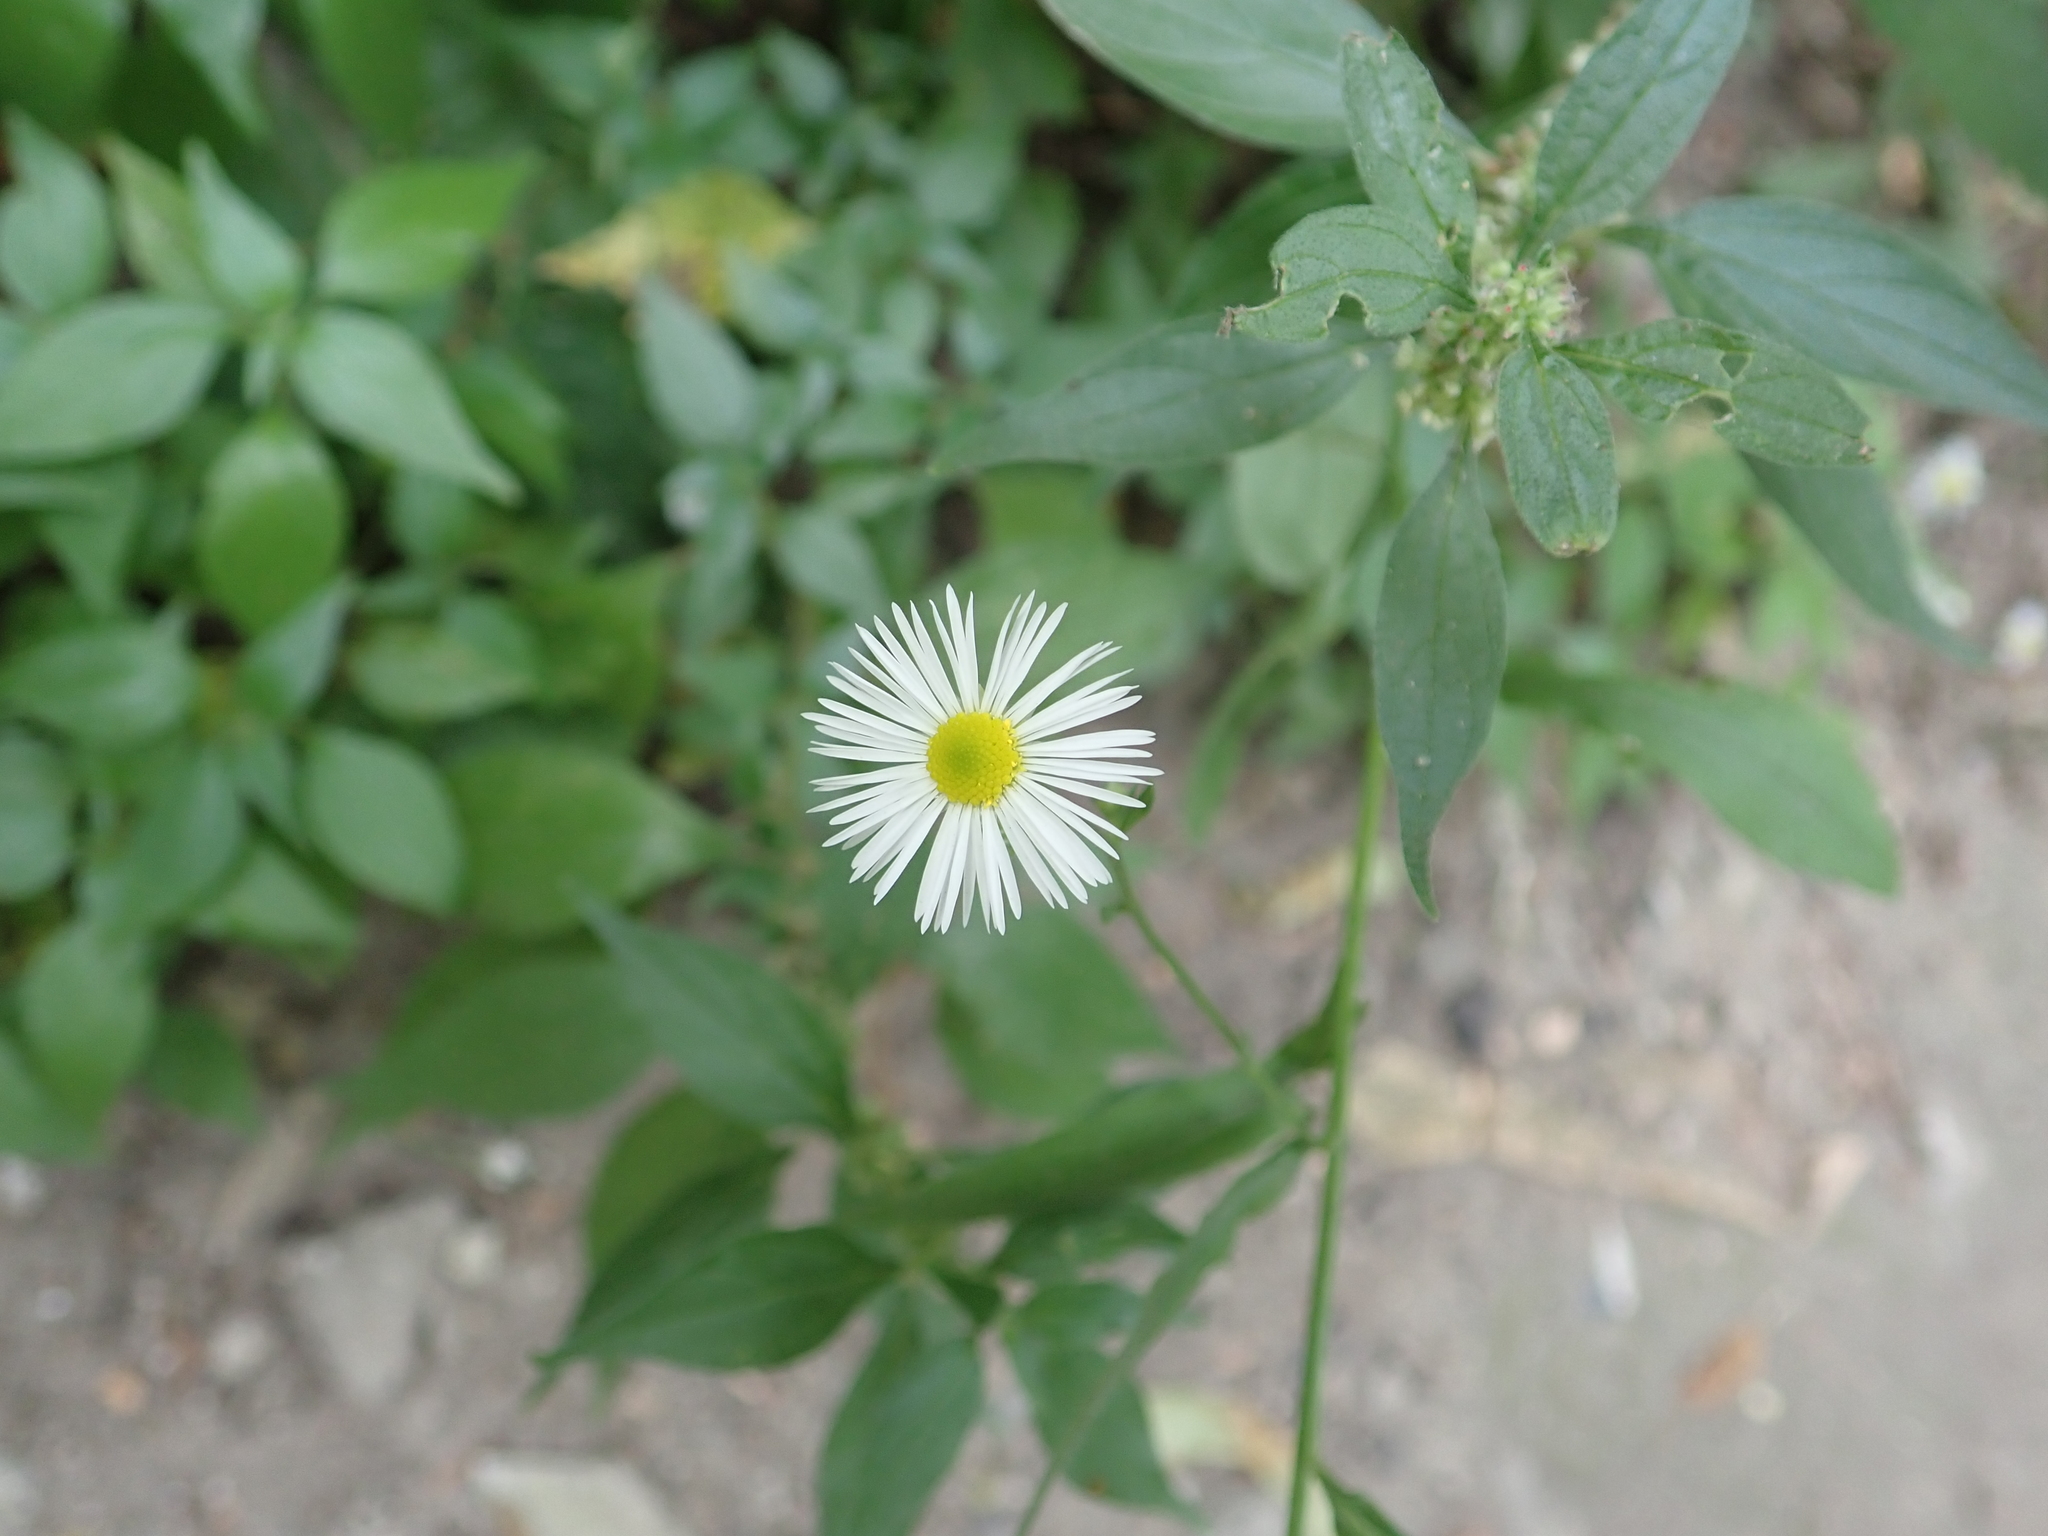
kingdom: Plantae
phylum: Tracheophyta
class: Magnoliopsida
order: Asterales
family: Asteraceae
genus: Erigeron
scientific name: Erigeron annuus
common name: Tall fleabane
